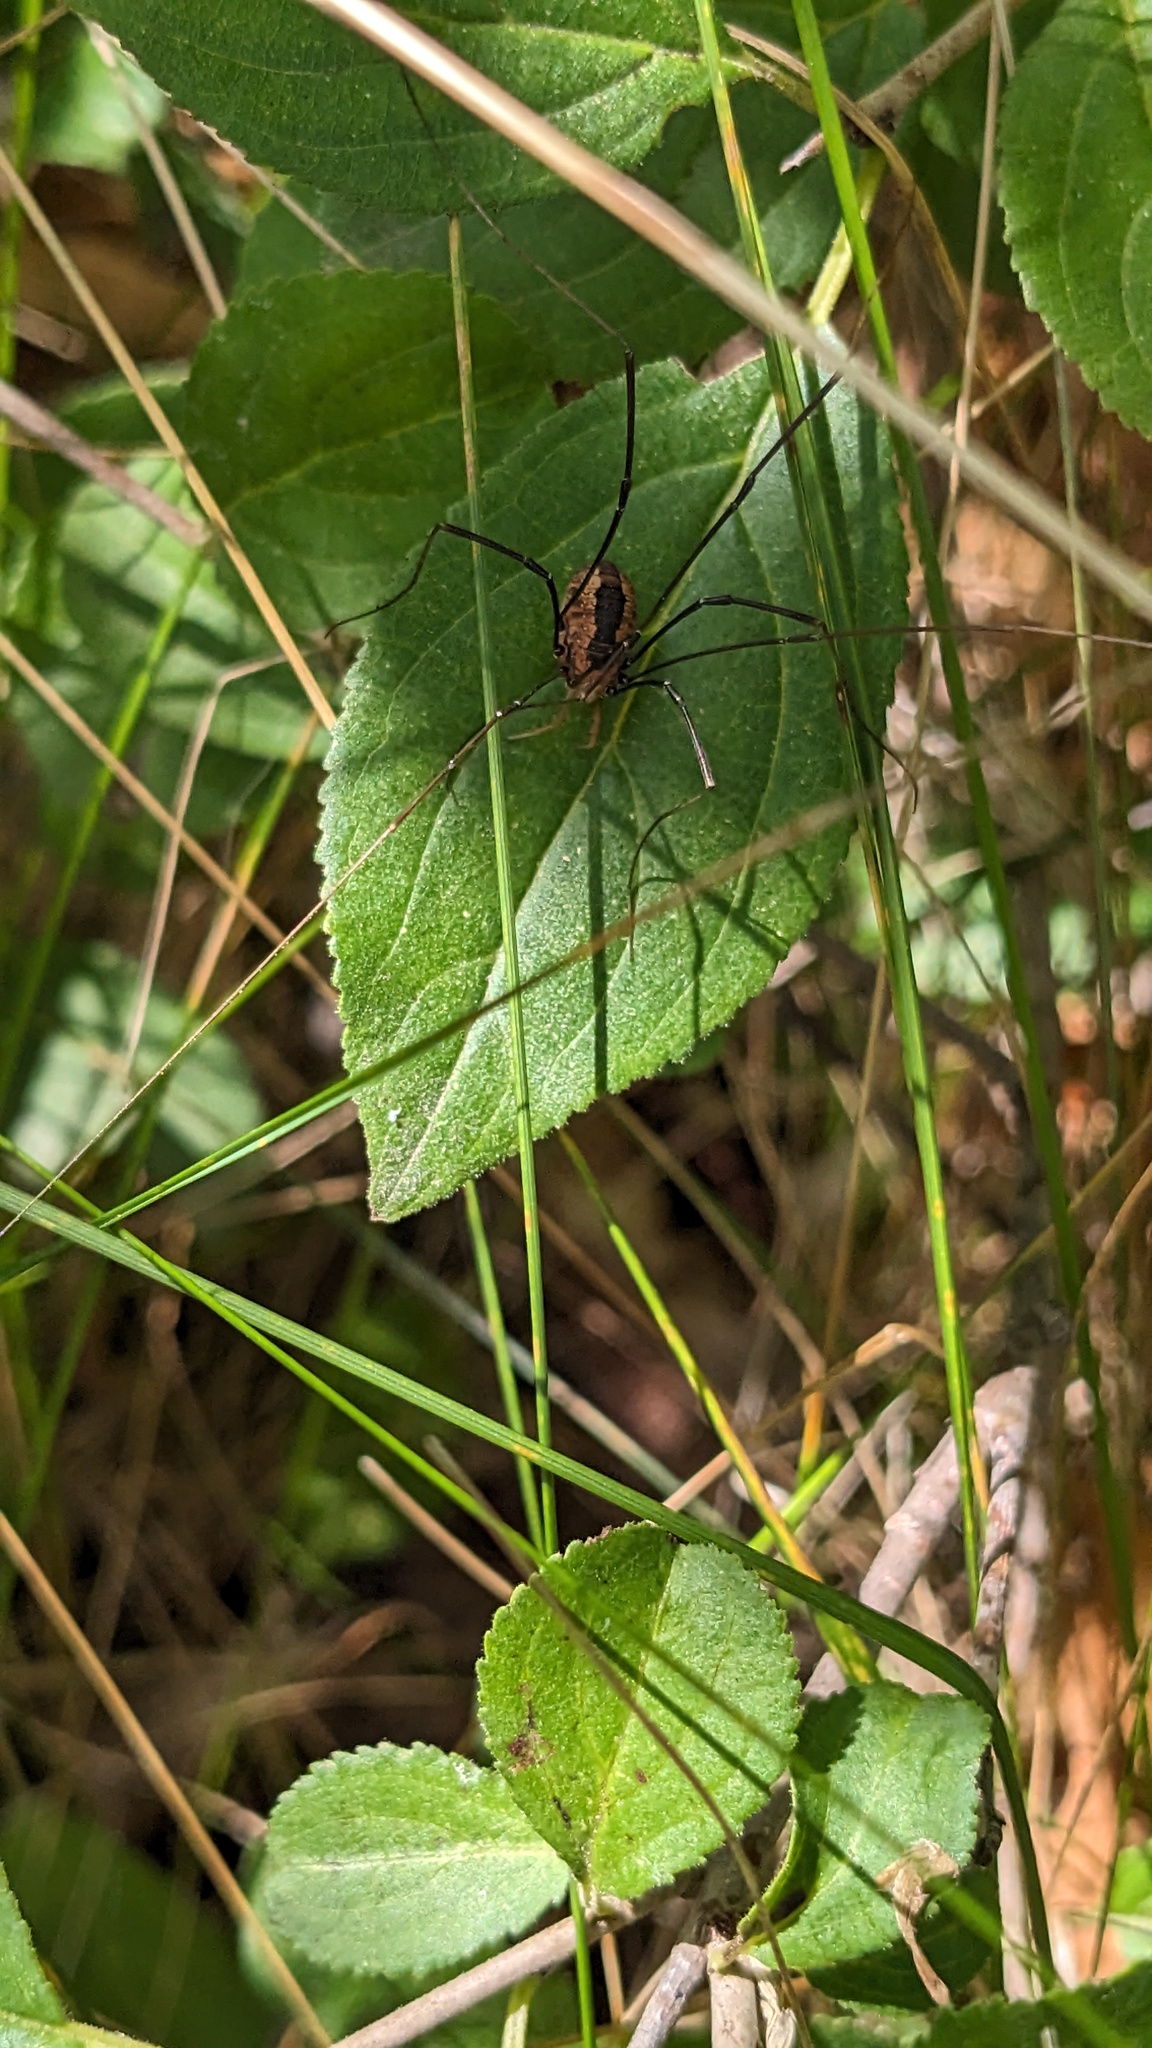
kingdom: Animalia
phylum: Arthropoda
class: Arachnida
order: Opiliones
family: Sclerosomatidae
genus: Leiobunum
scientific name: Leiobunum vittatum
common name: Eastern harvestman
